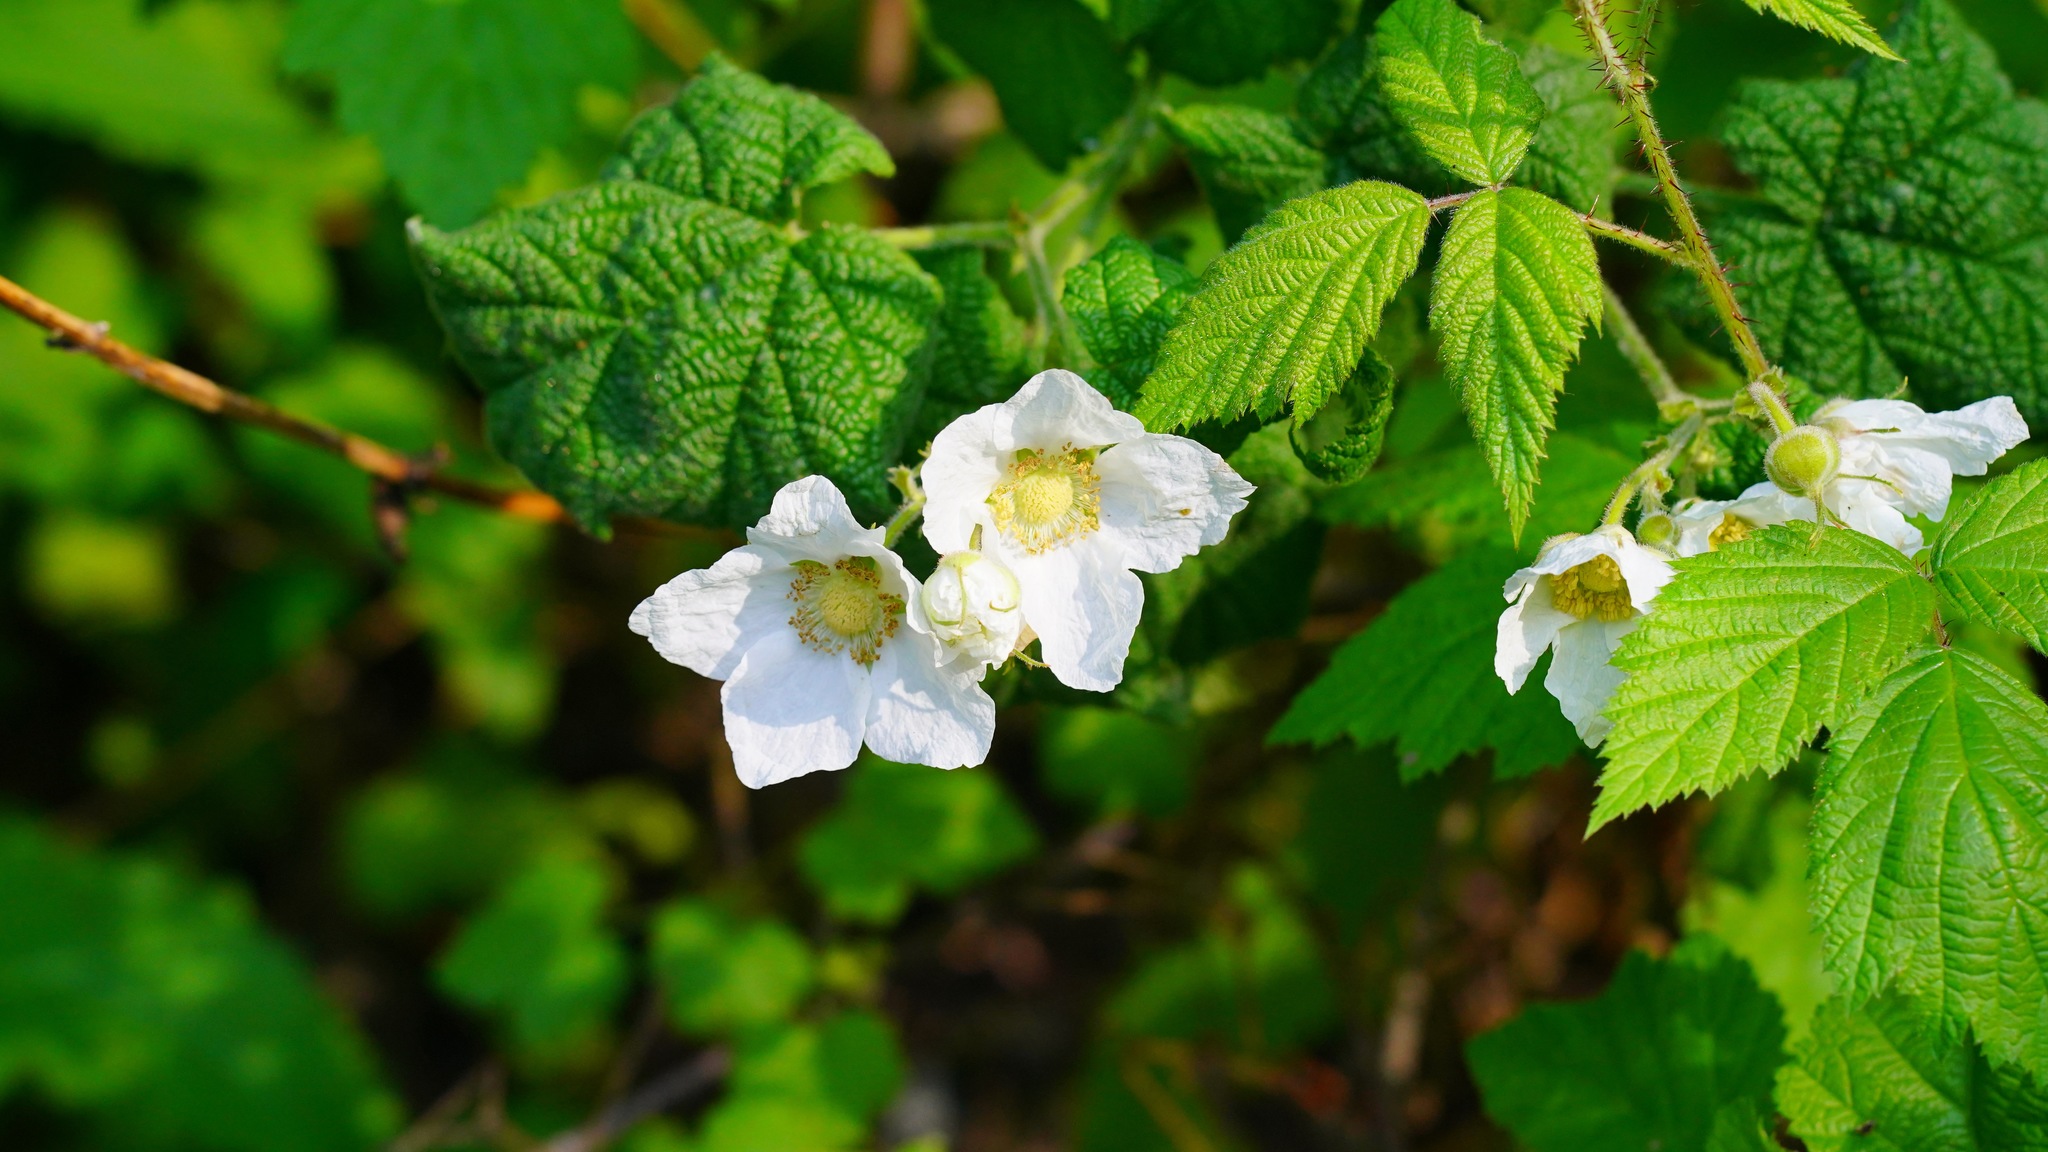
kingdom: Plantae
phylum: Tracheophyta
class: Magnoliopsida
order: Rosales
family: Rosaceae
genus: Rubus
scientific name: Rubus parviflorus
